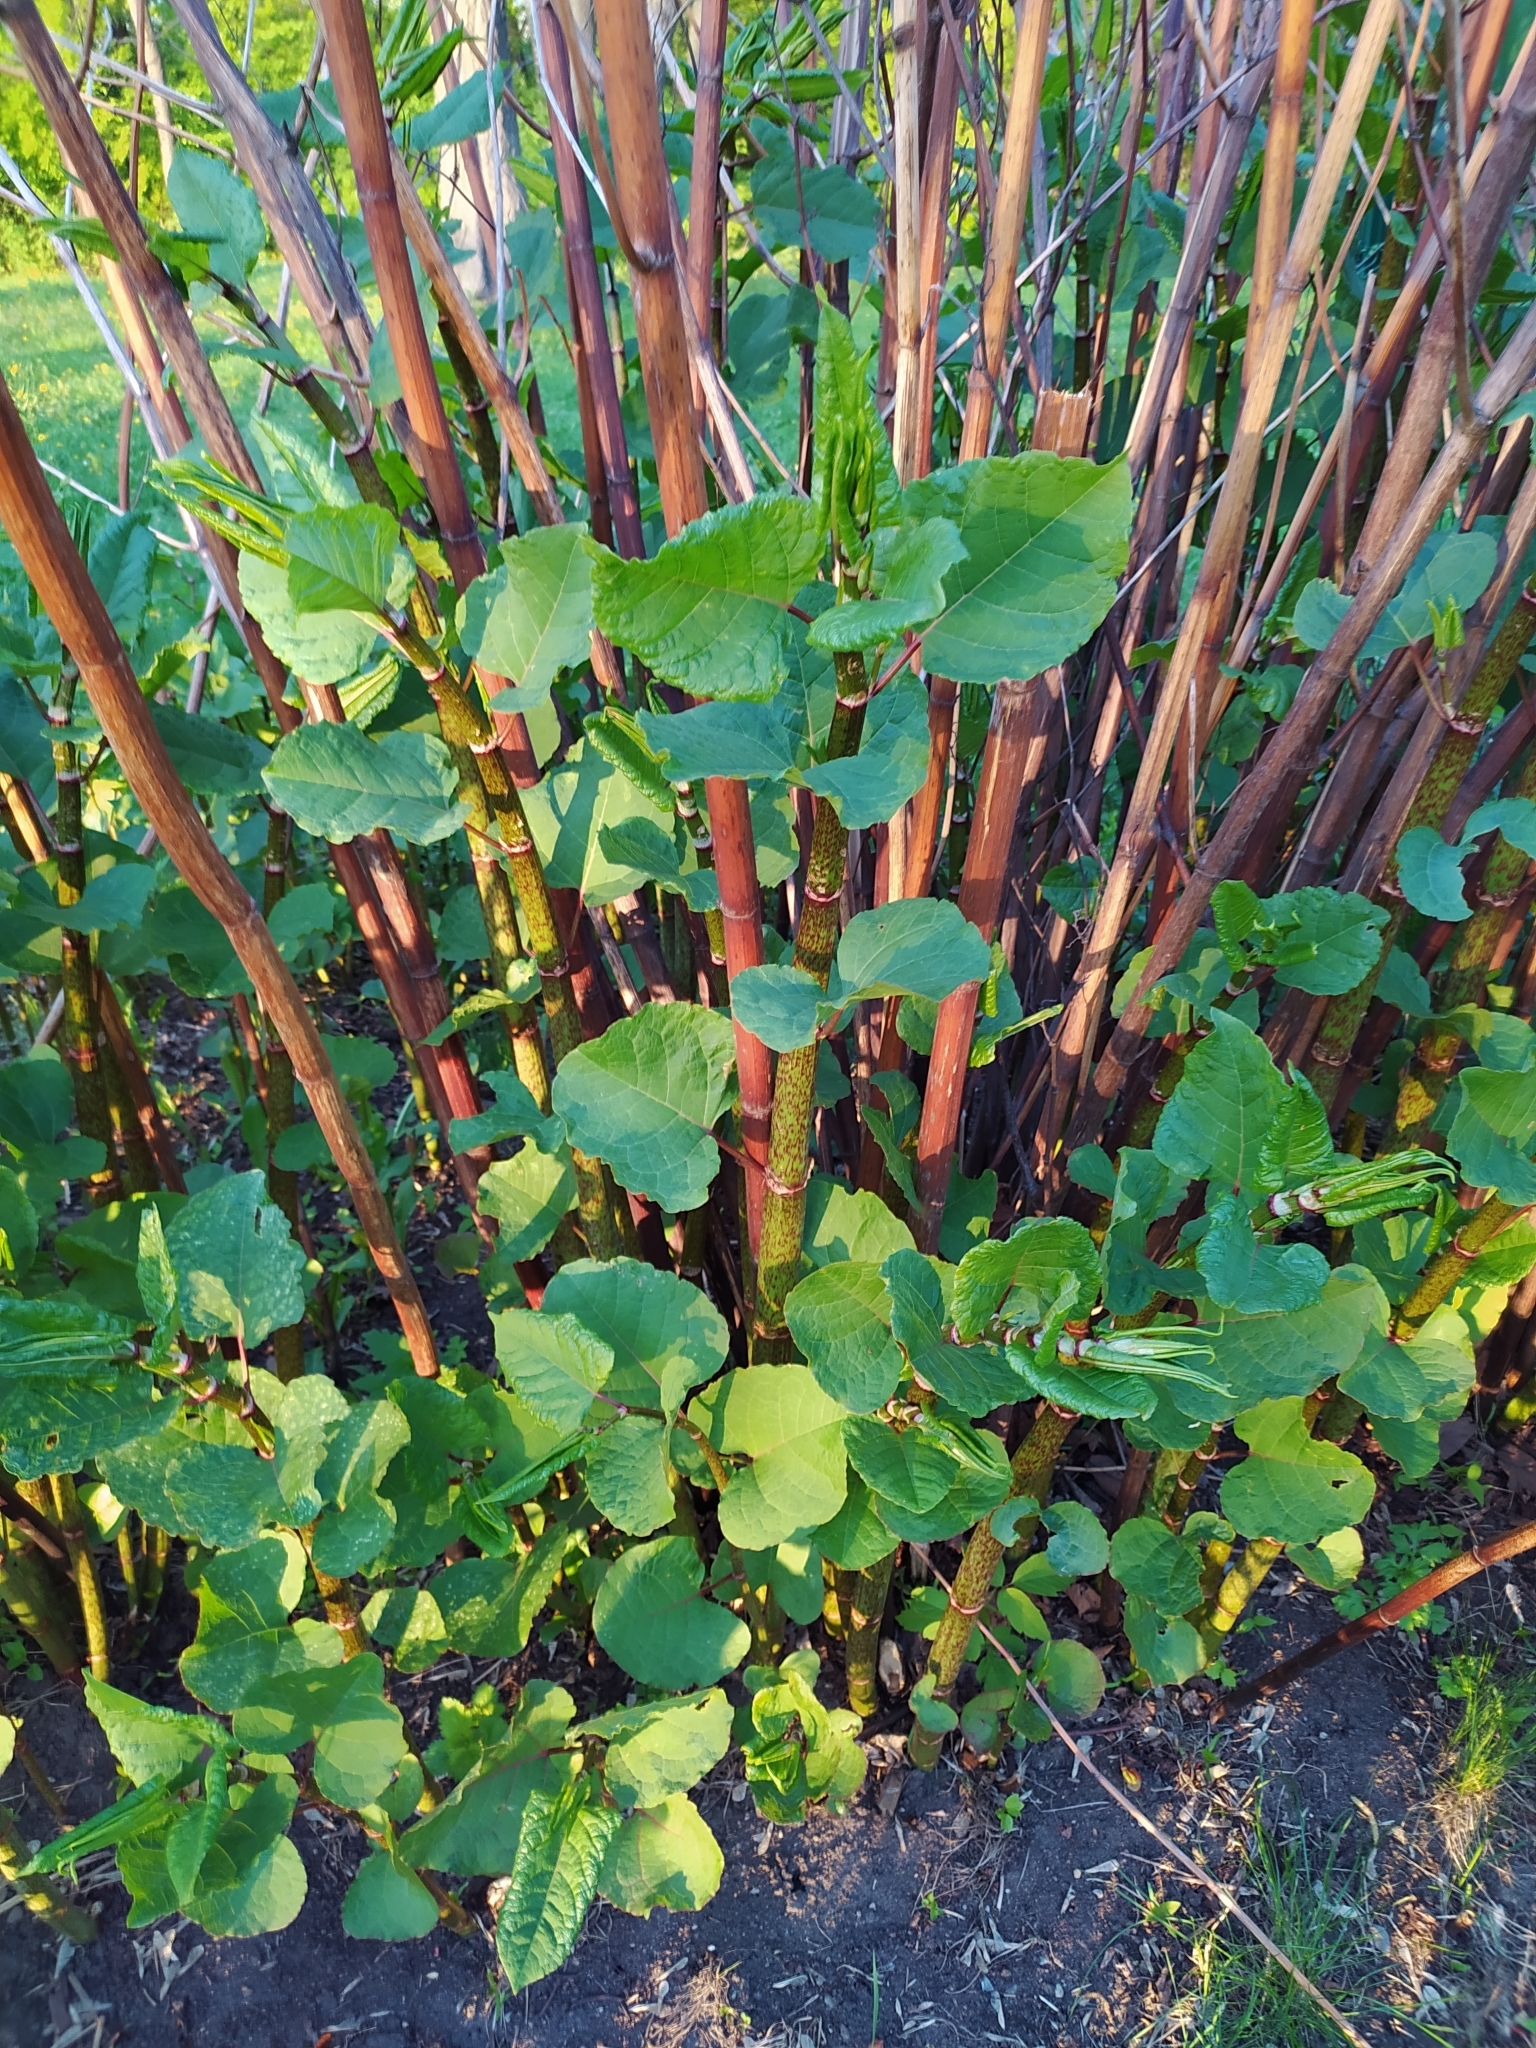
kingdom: Plantae
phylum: Tracheophyta
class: Magnoliopsida
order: Caryophyllales
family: Polygonaceae
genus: Reynoutria
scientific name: Reynoutria bohemica
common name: Bohemian knotweed
